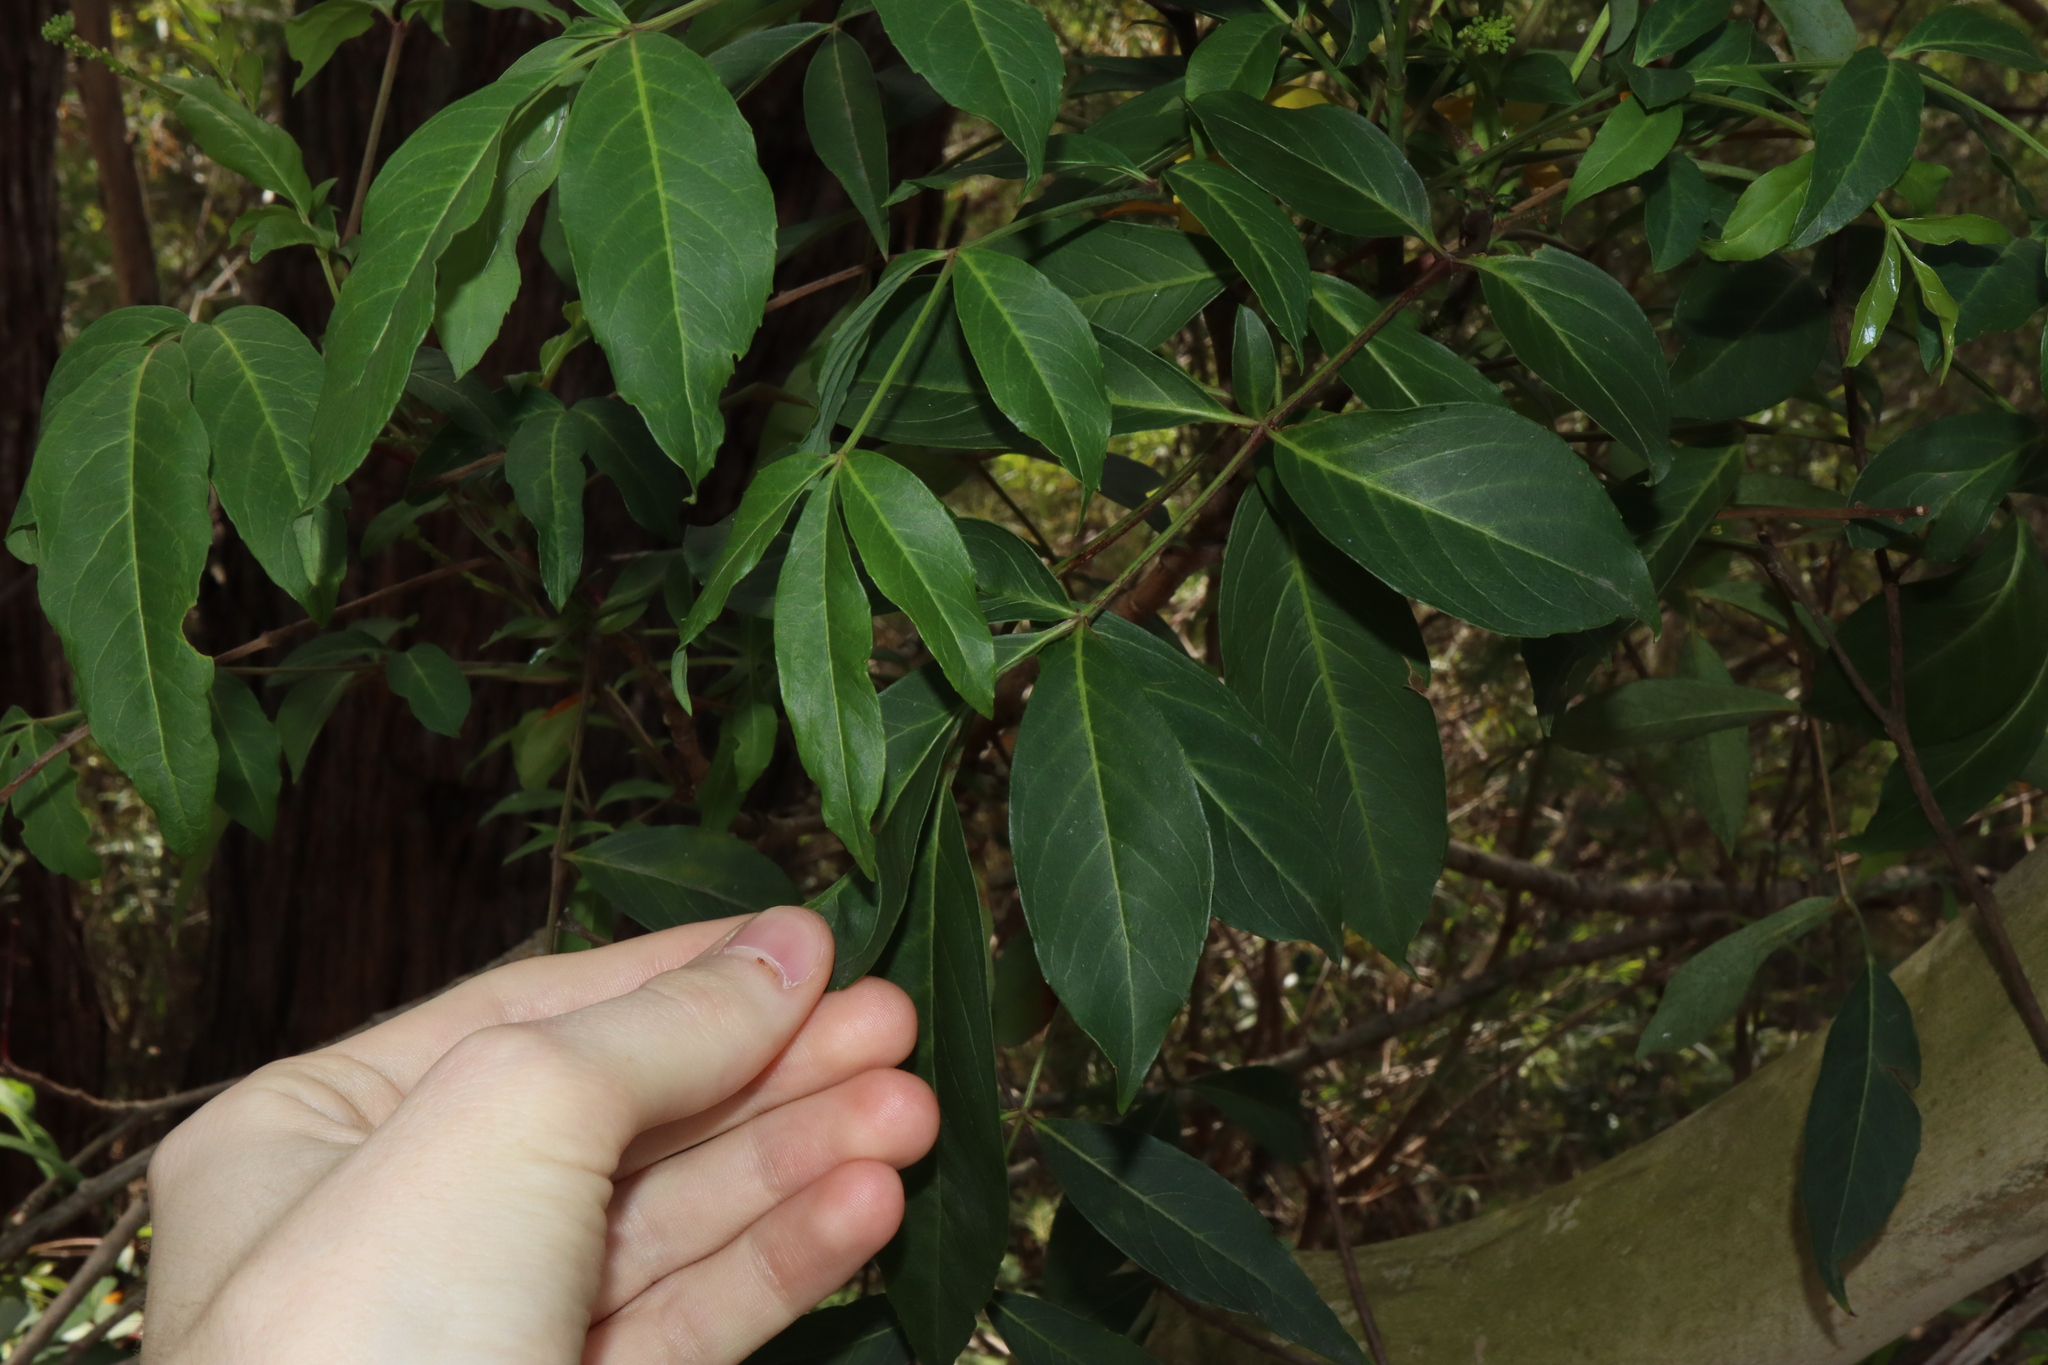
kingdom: Plantae
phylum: Tracheophyta
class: Magnoliopsida
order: Apiales
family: Araliaceae
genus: Polyscias
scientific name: Polyscias sambucifolia
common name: Elderberry-ash
